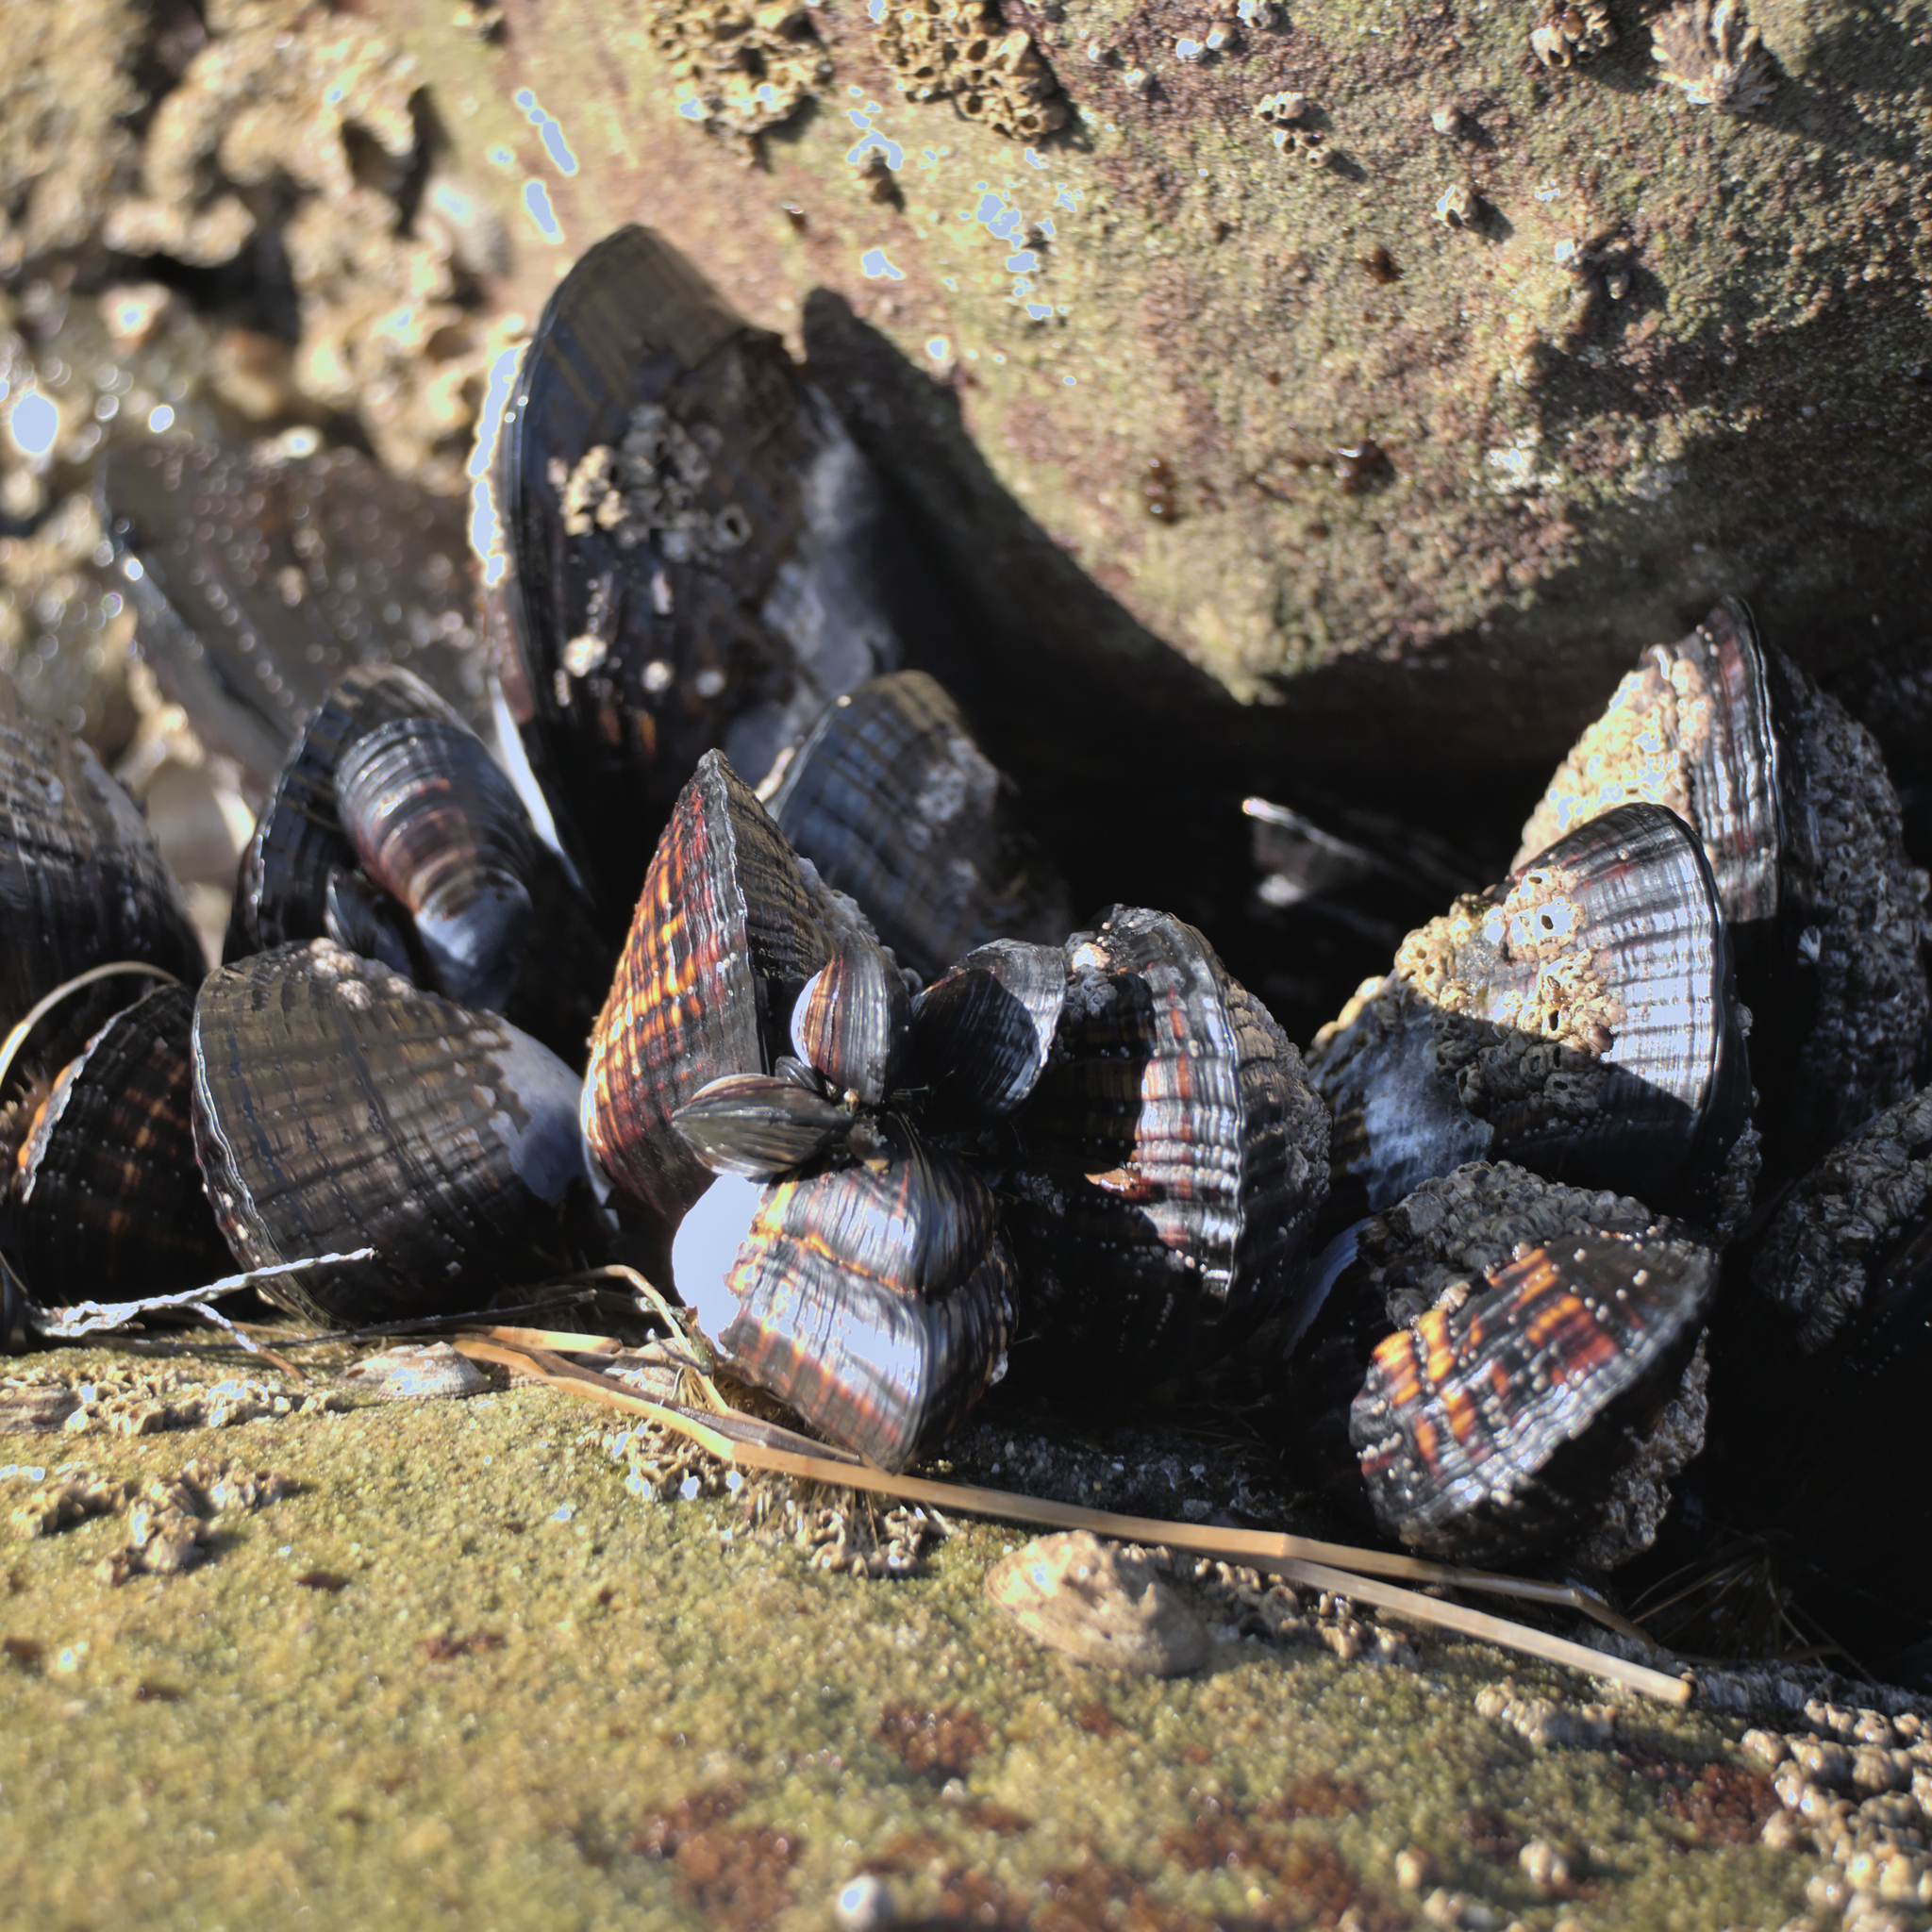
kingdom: Animalia
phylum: Mollusca
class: Bivalvia
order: Mytilida
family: Mytilidae
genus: Mytilus
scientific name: Mytilus californianus
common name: California mussel
